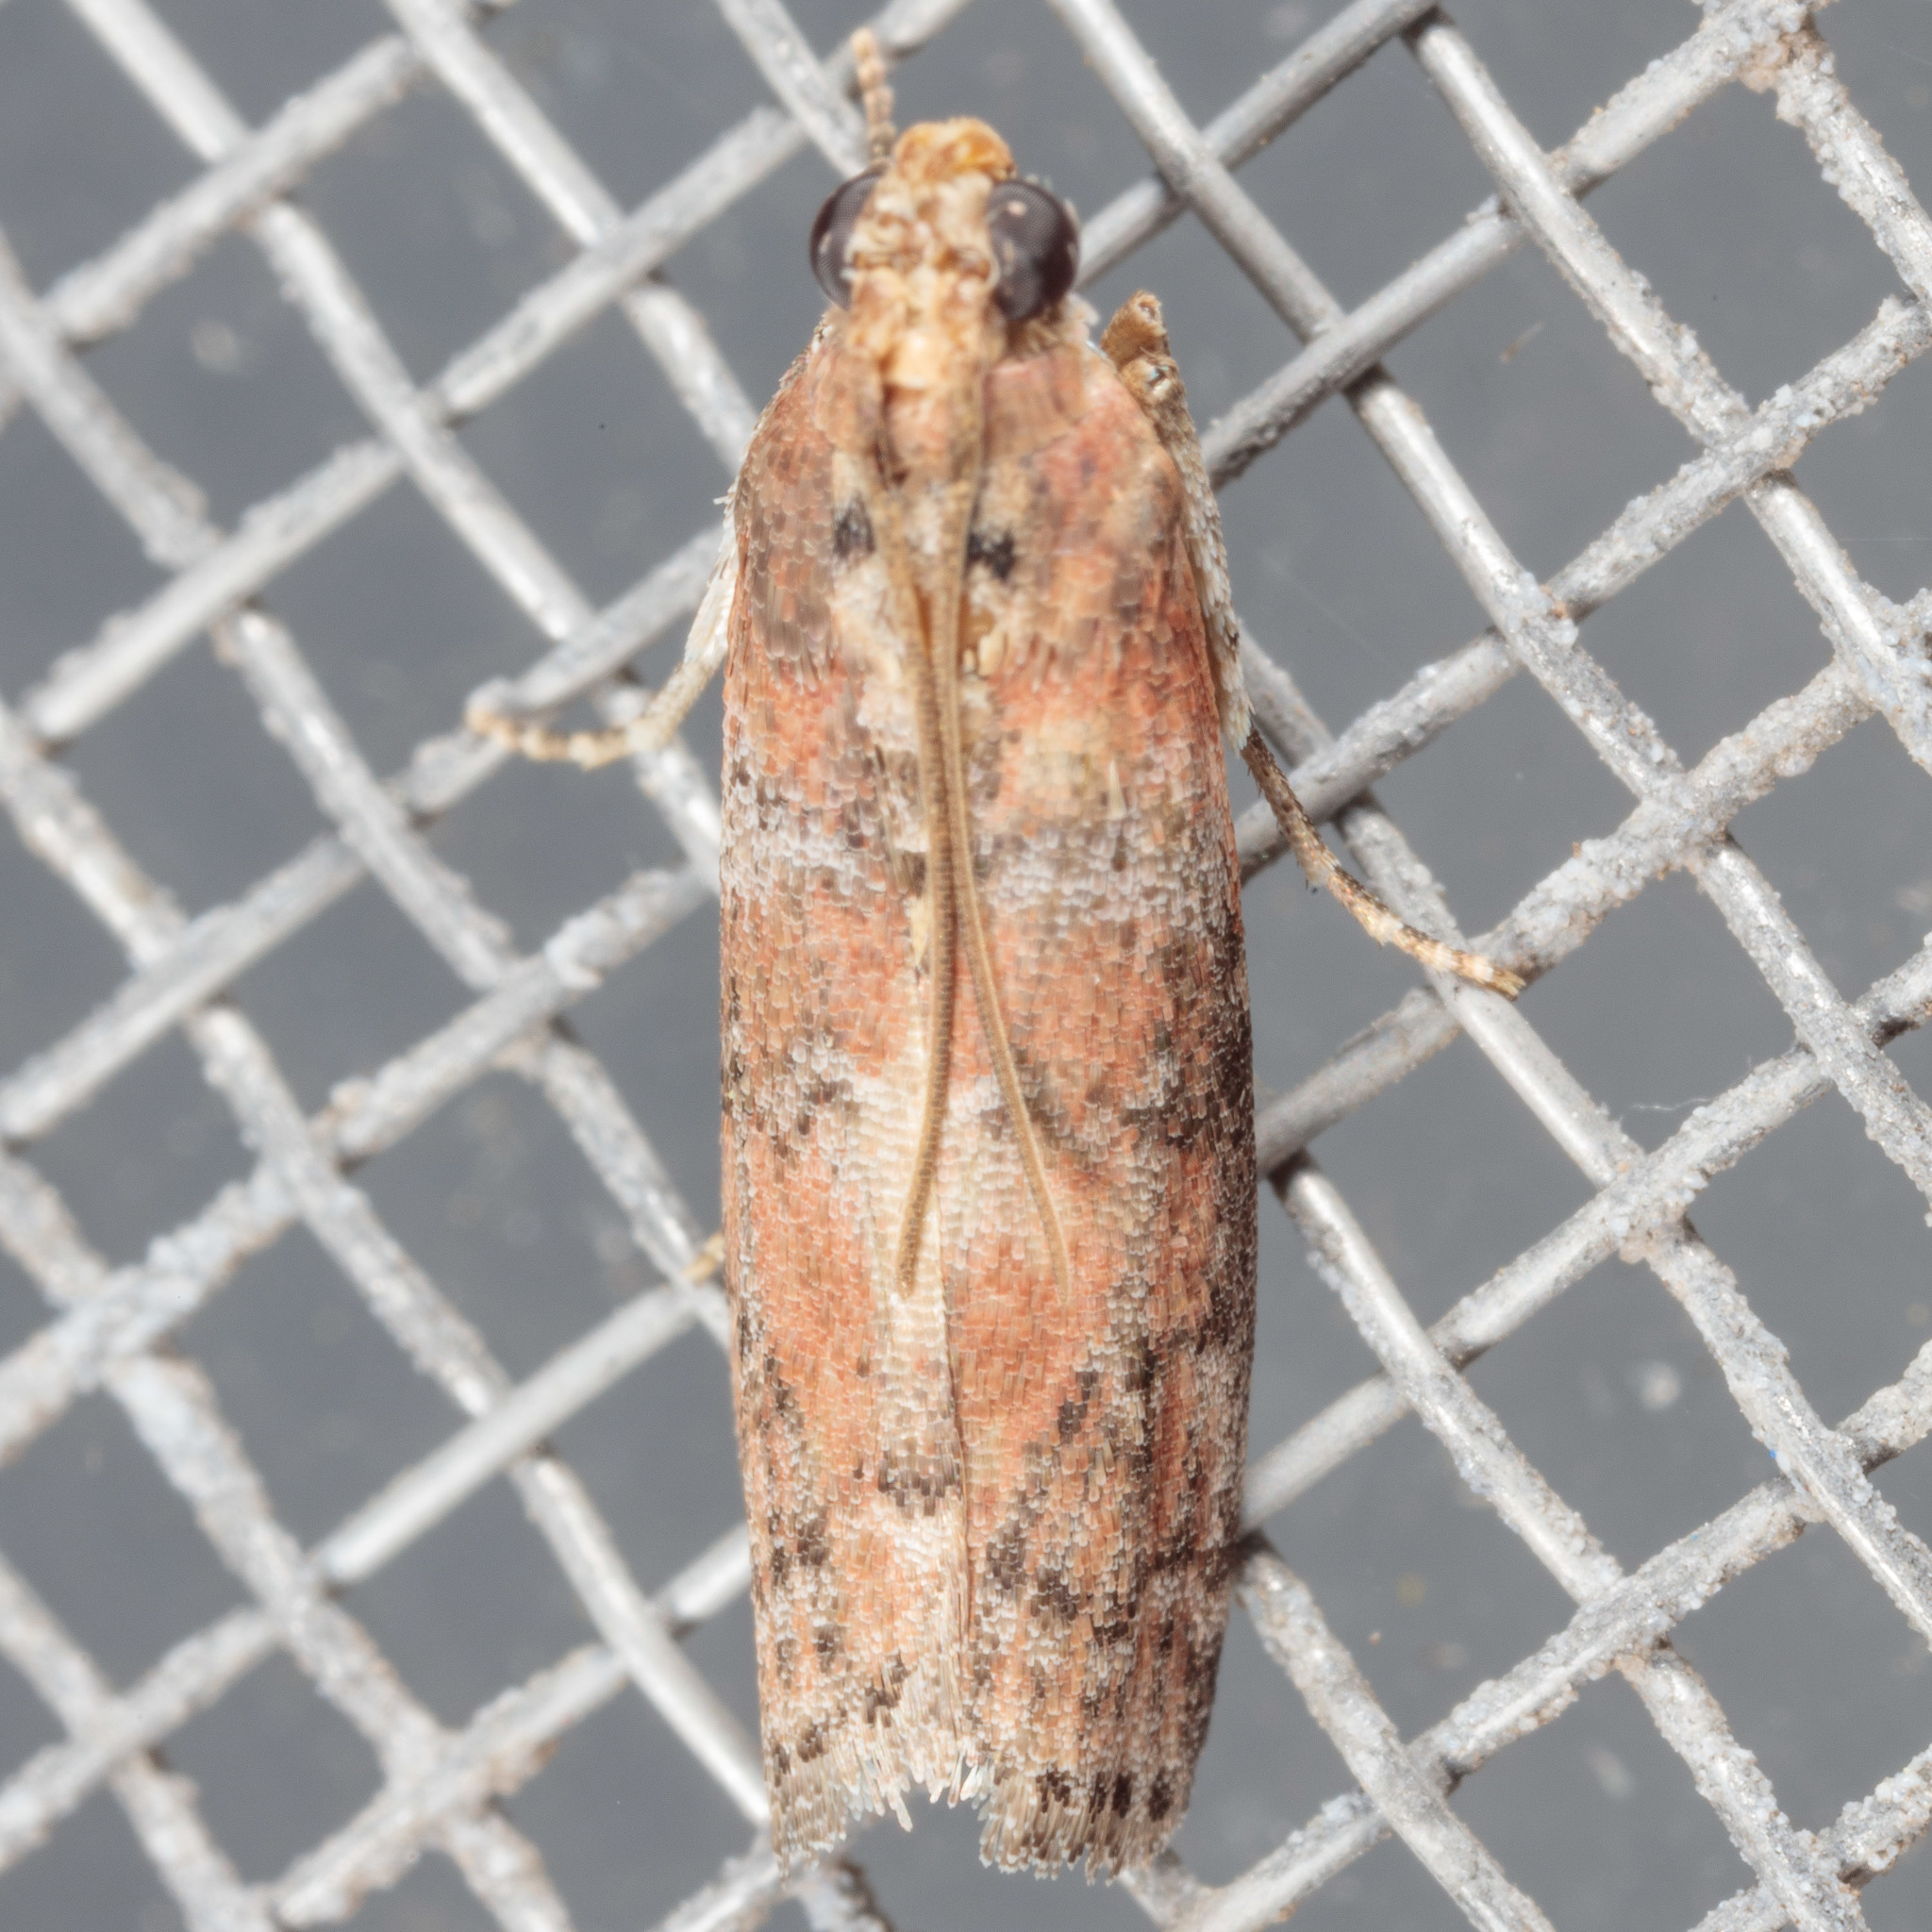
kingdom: Animalia
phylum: Arthropoda
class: Insecta
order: Lepidoptera
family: Pyralidae
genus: Sciota
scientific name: Sciota
